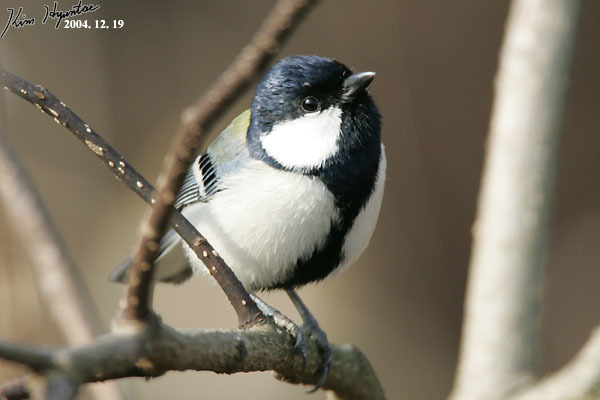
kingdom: Animalia
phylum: Chordata
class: Aves
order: Passeriformes
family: Paridae
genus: Parus
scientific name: Parus minor
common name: Japanese tit
